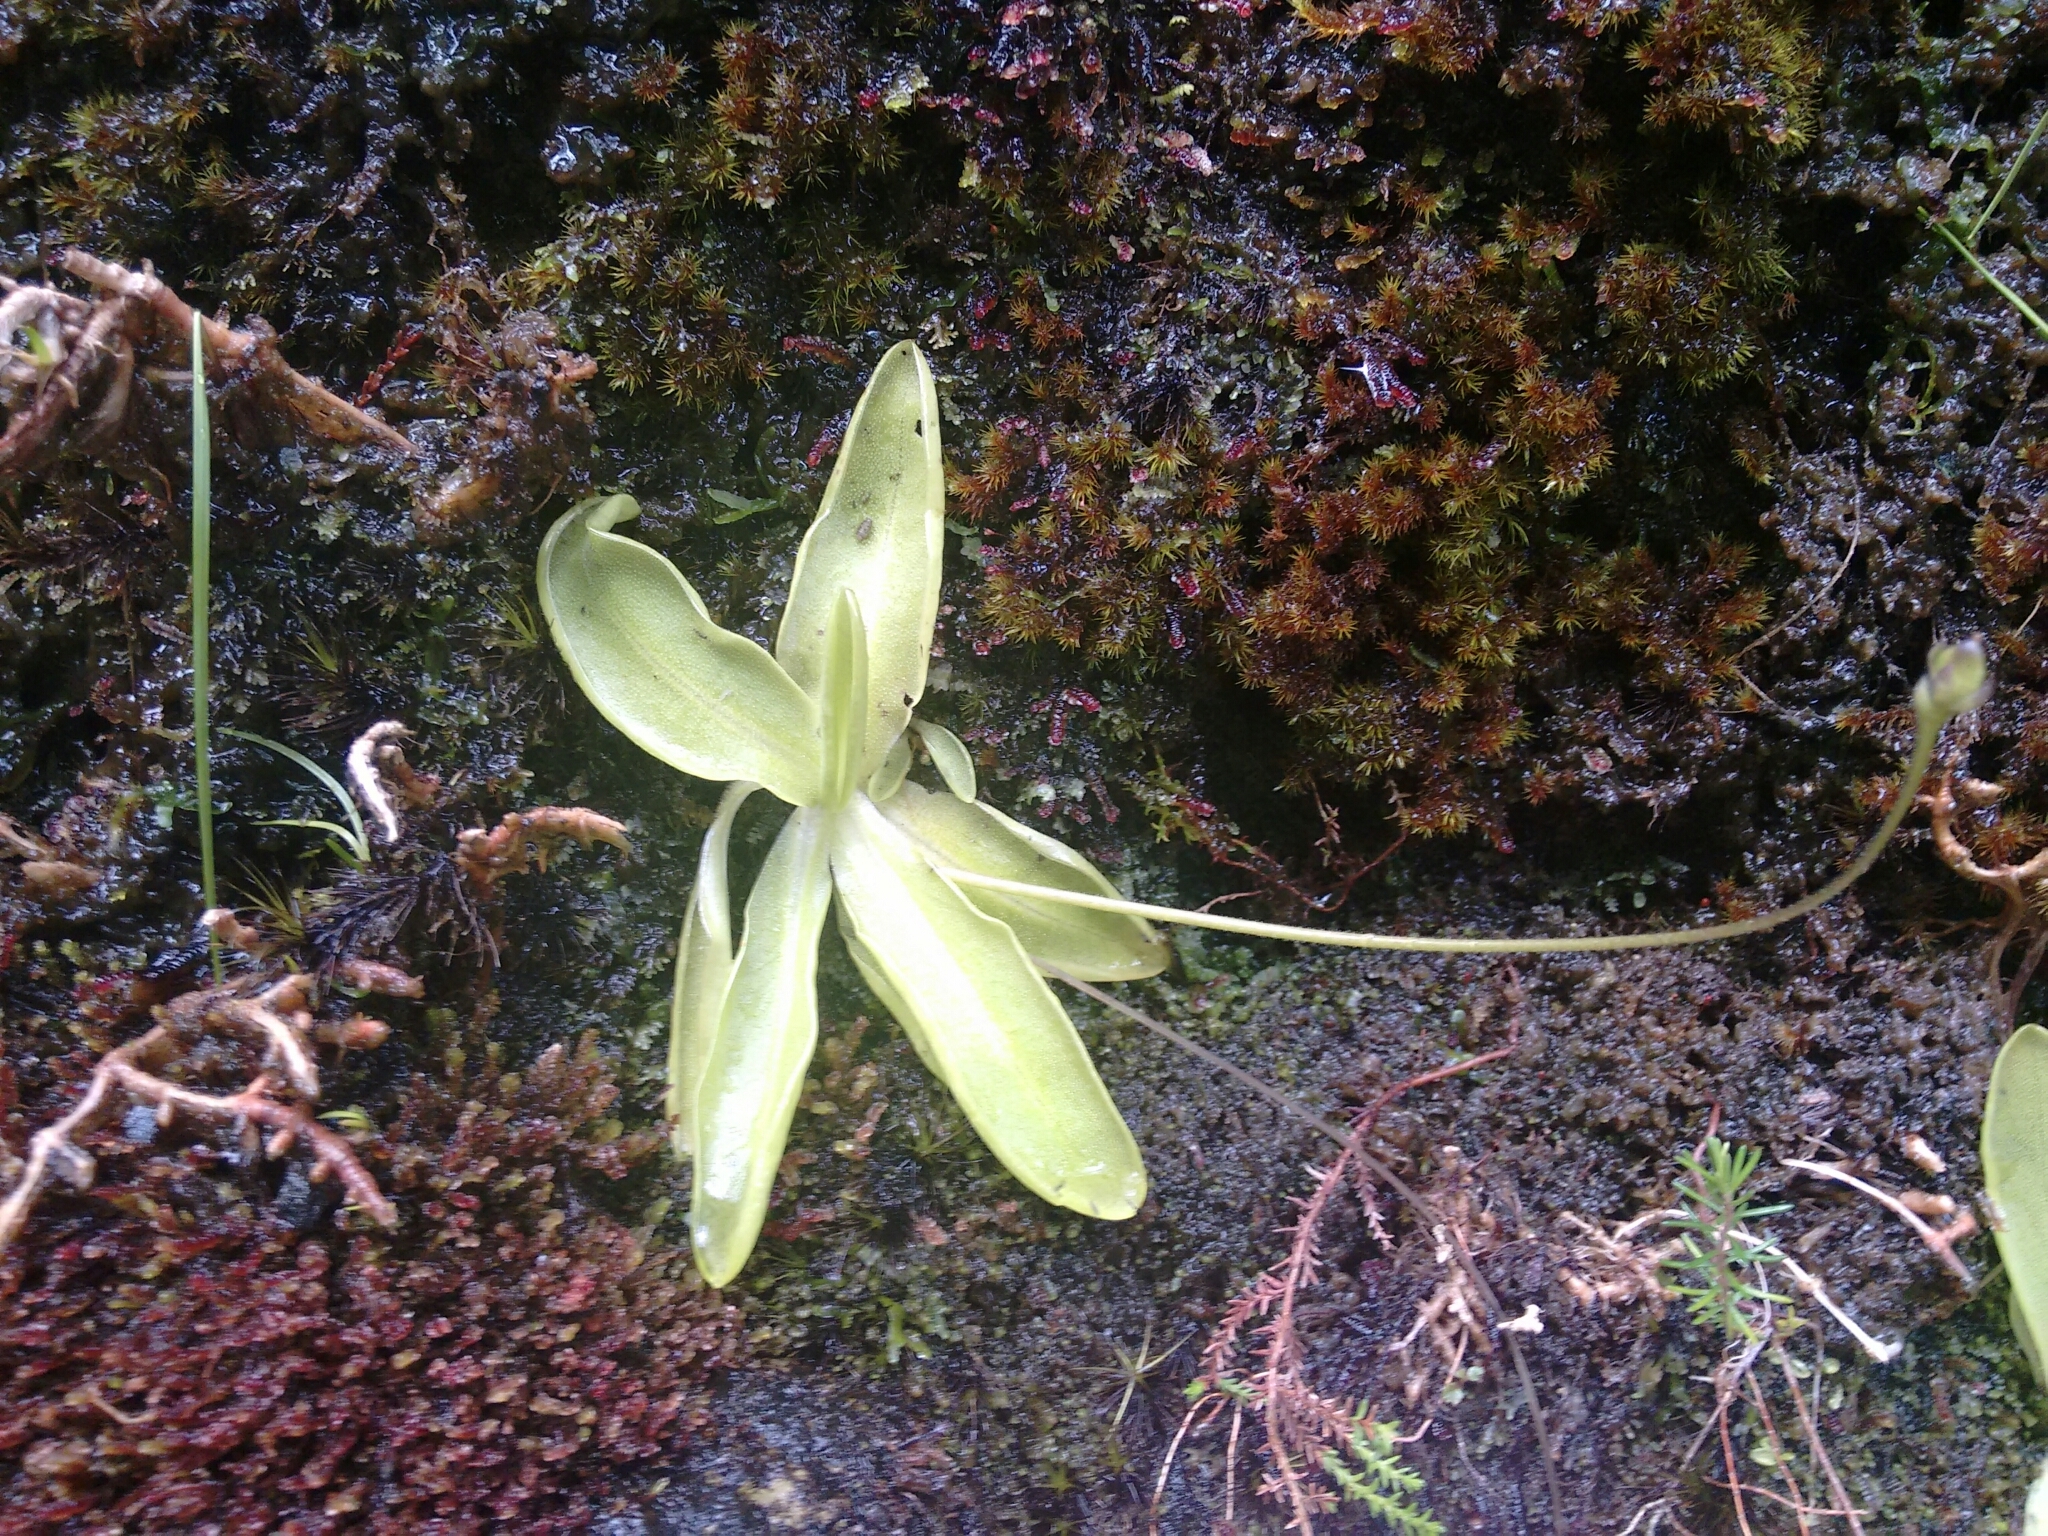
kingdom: Plantae
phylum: Tracheophyta
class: Magnoliopsida
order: Lamiales
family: Lentibulariaceae
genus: Pinguicula
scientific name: Pinguicula vulgaris
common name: Common butterwort
